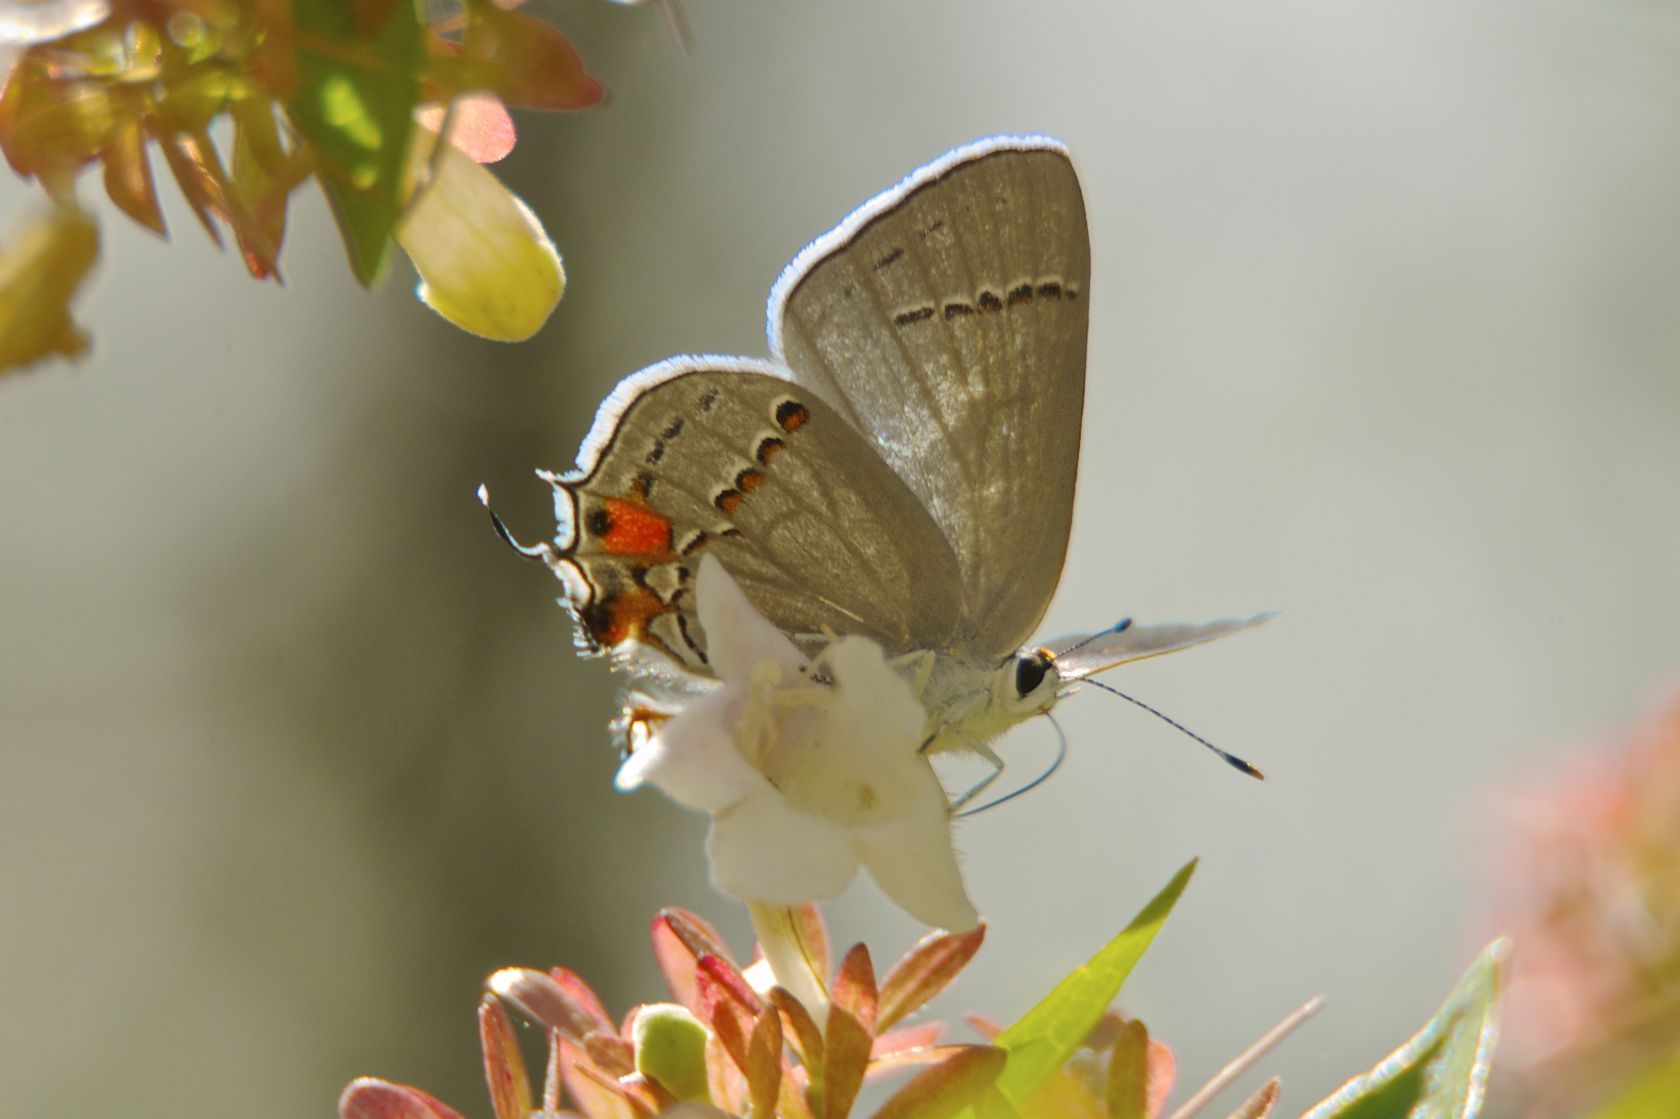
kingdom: Animalia
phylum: Arthropoda
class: Insecta
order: Lepidoptera
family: Lycaenidae
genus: Strymon
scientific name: Strymon melinus
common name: Gray hairstreak
